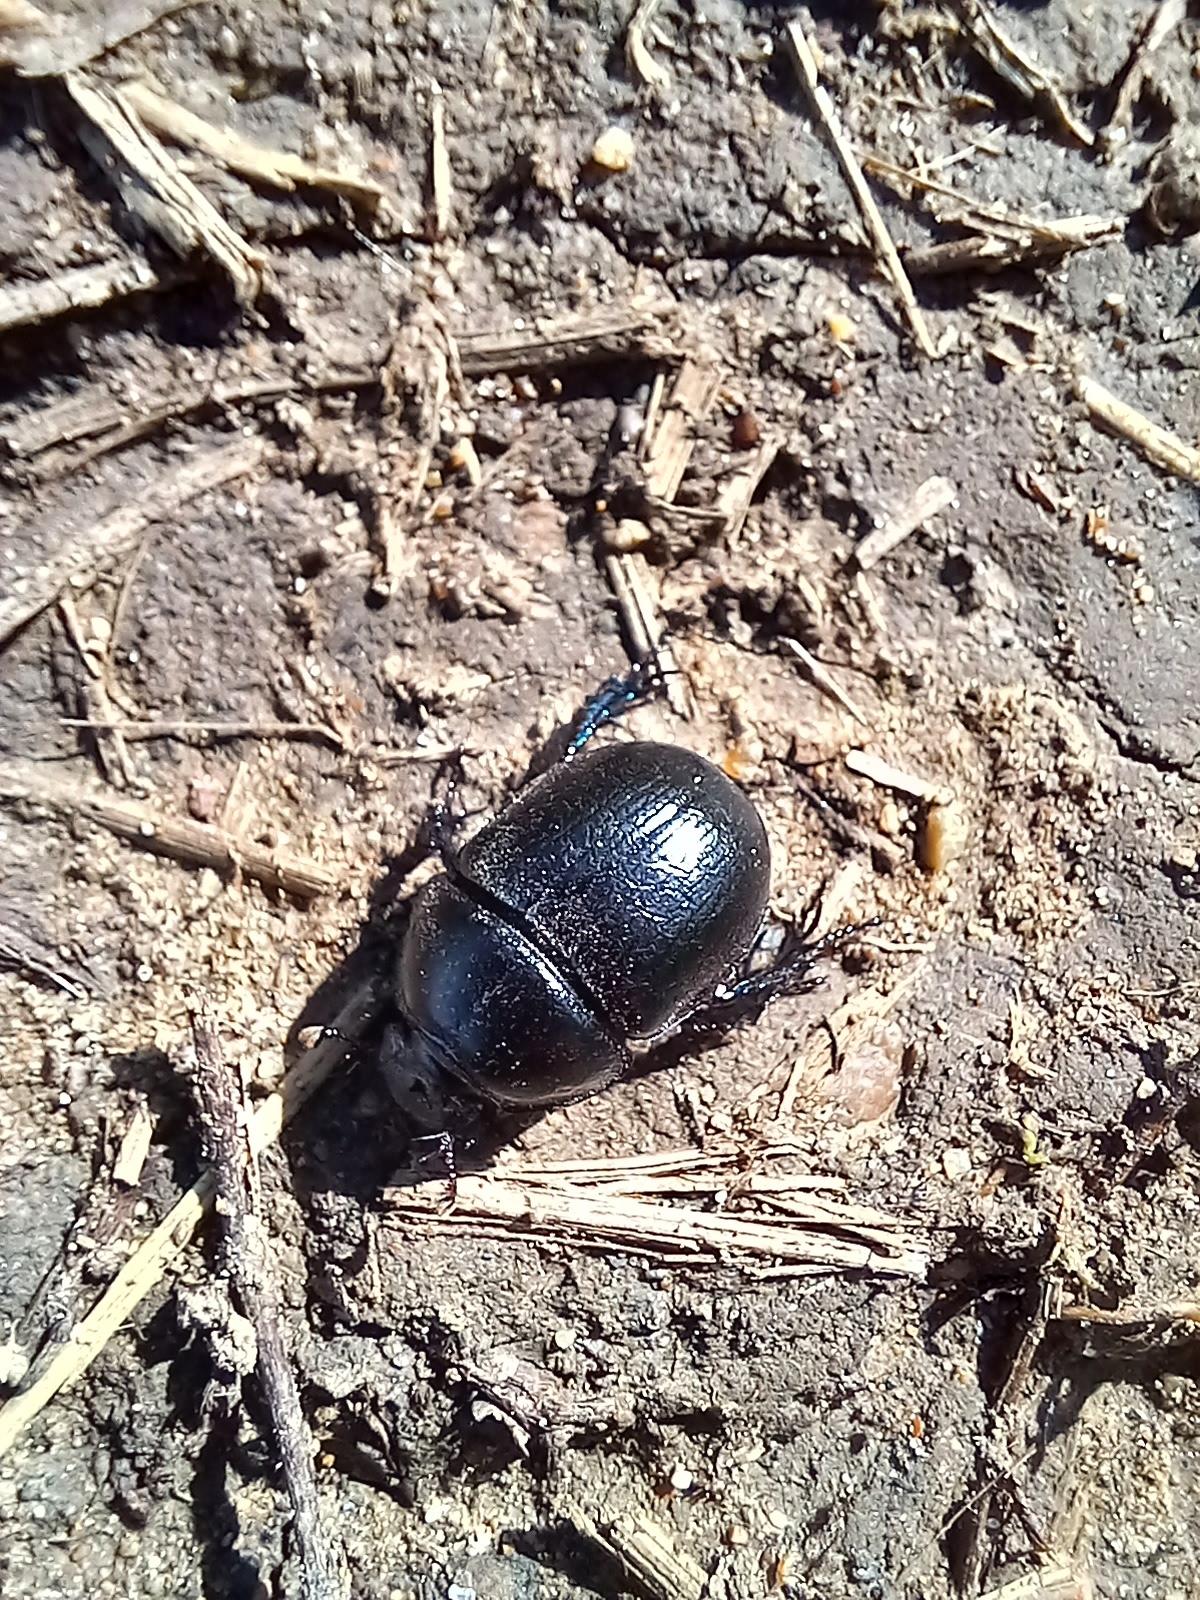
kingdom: Animalia
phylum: Arthropoda
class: Insecta
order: Coleoptera
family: Geotrupidae
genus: Anoplotrupes
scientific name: Anoplotrupes stercorosus
